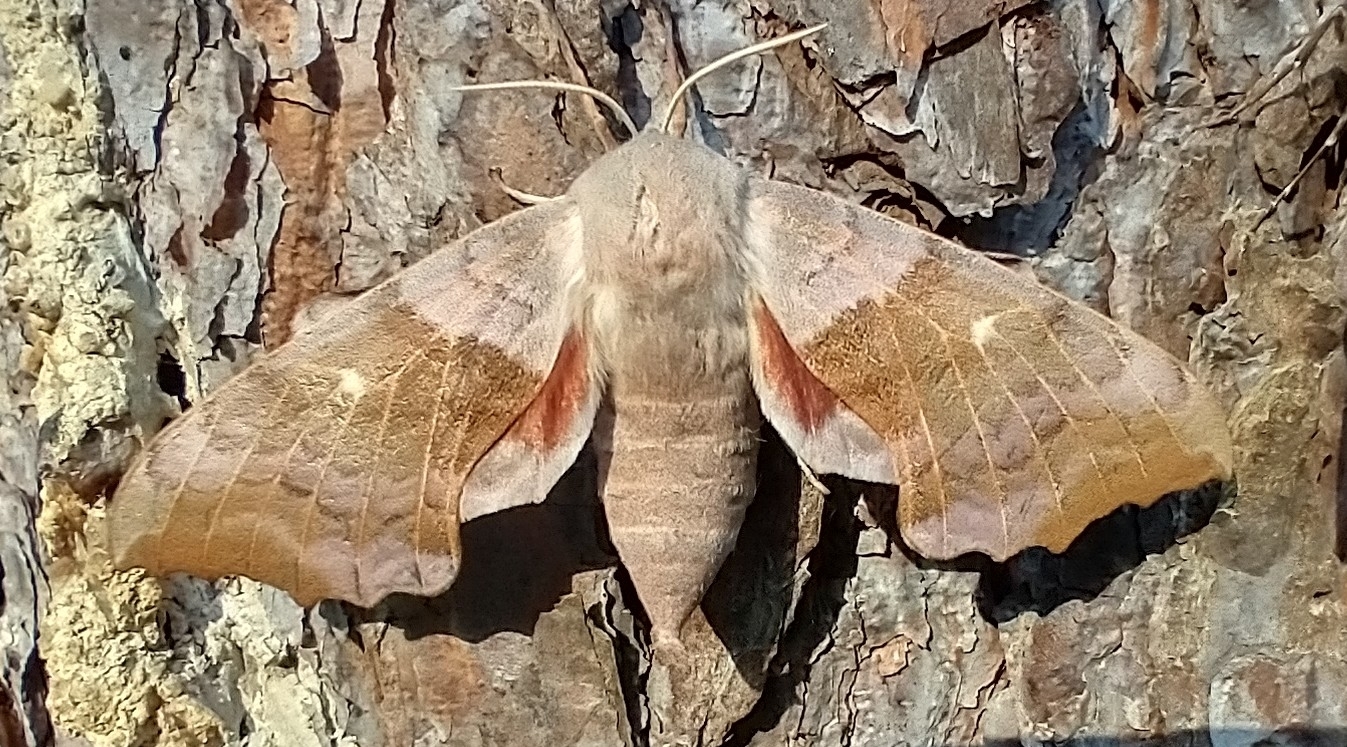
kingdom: Animalia
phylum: Arthropoda
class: Insecta
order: Lepidoptera
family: Sphingidae
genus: Laothoe
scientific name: Laothoe populi
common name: Poplar hawk-moth
